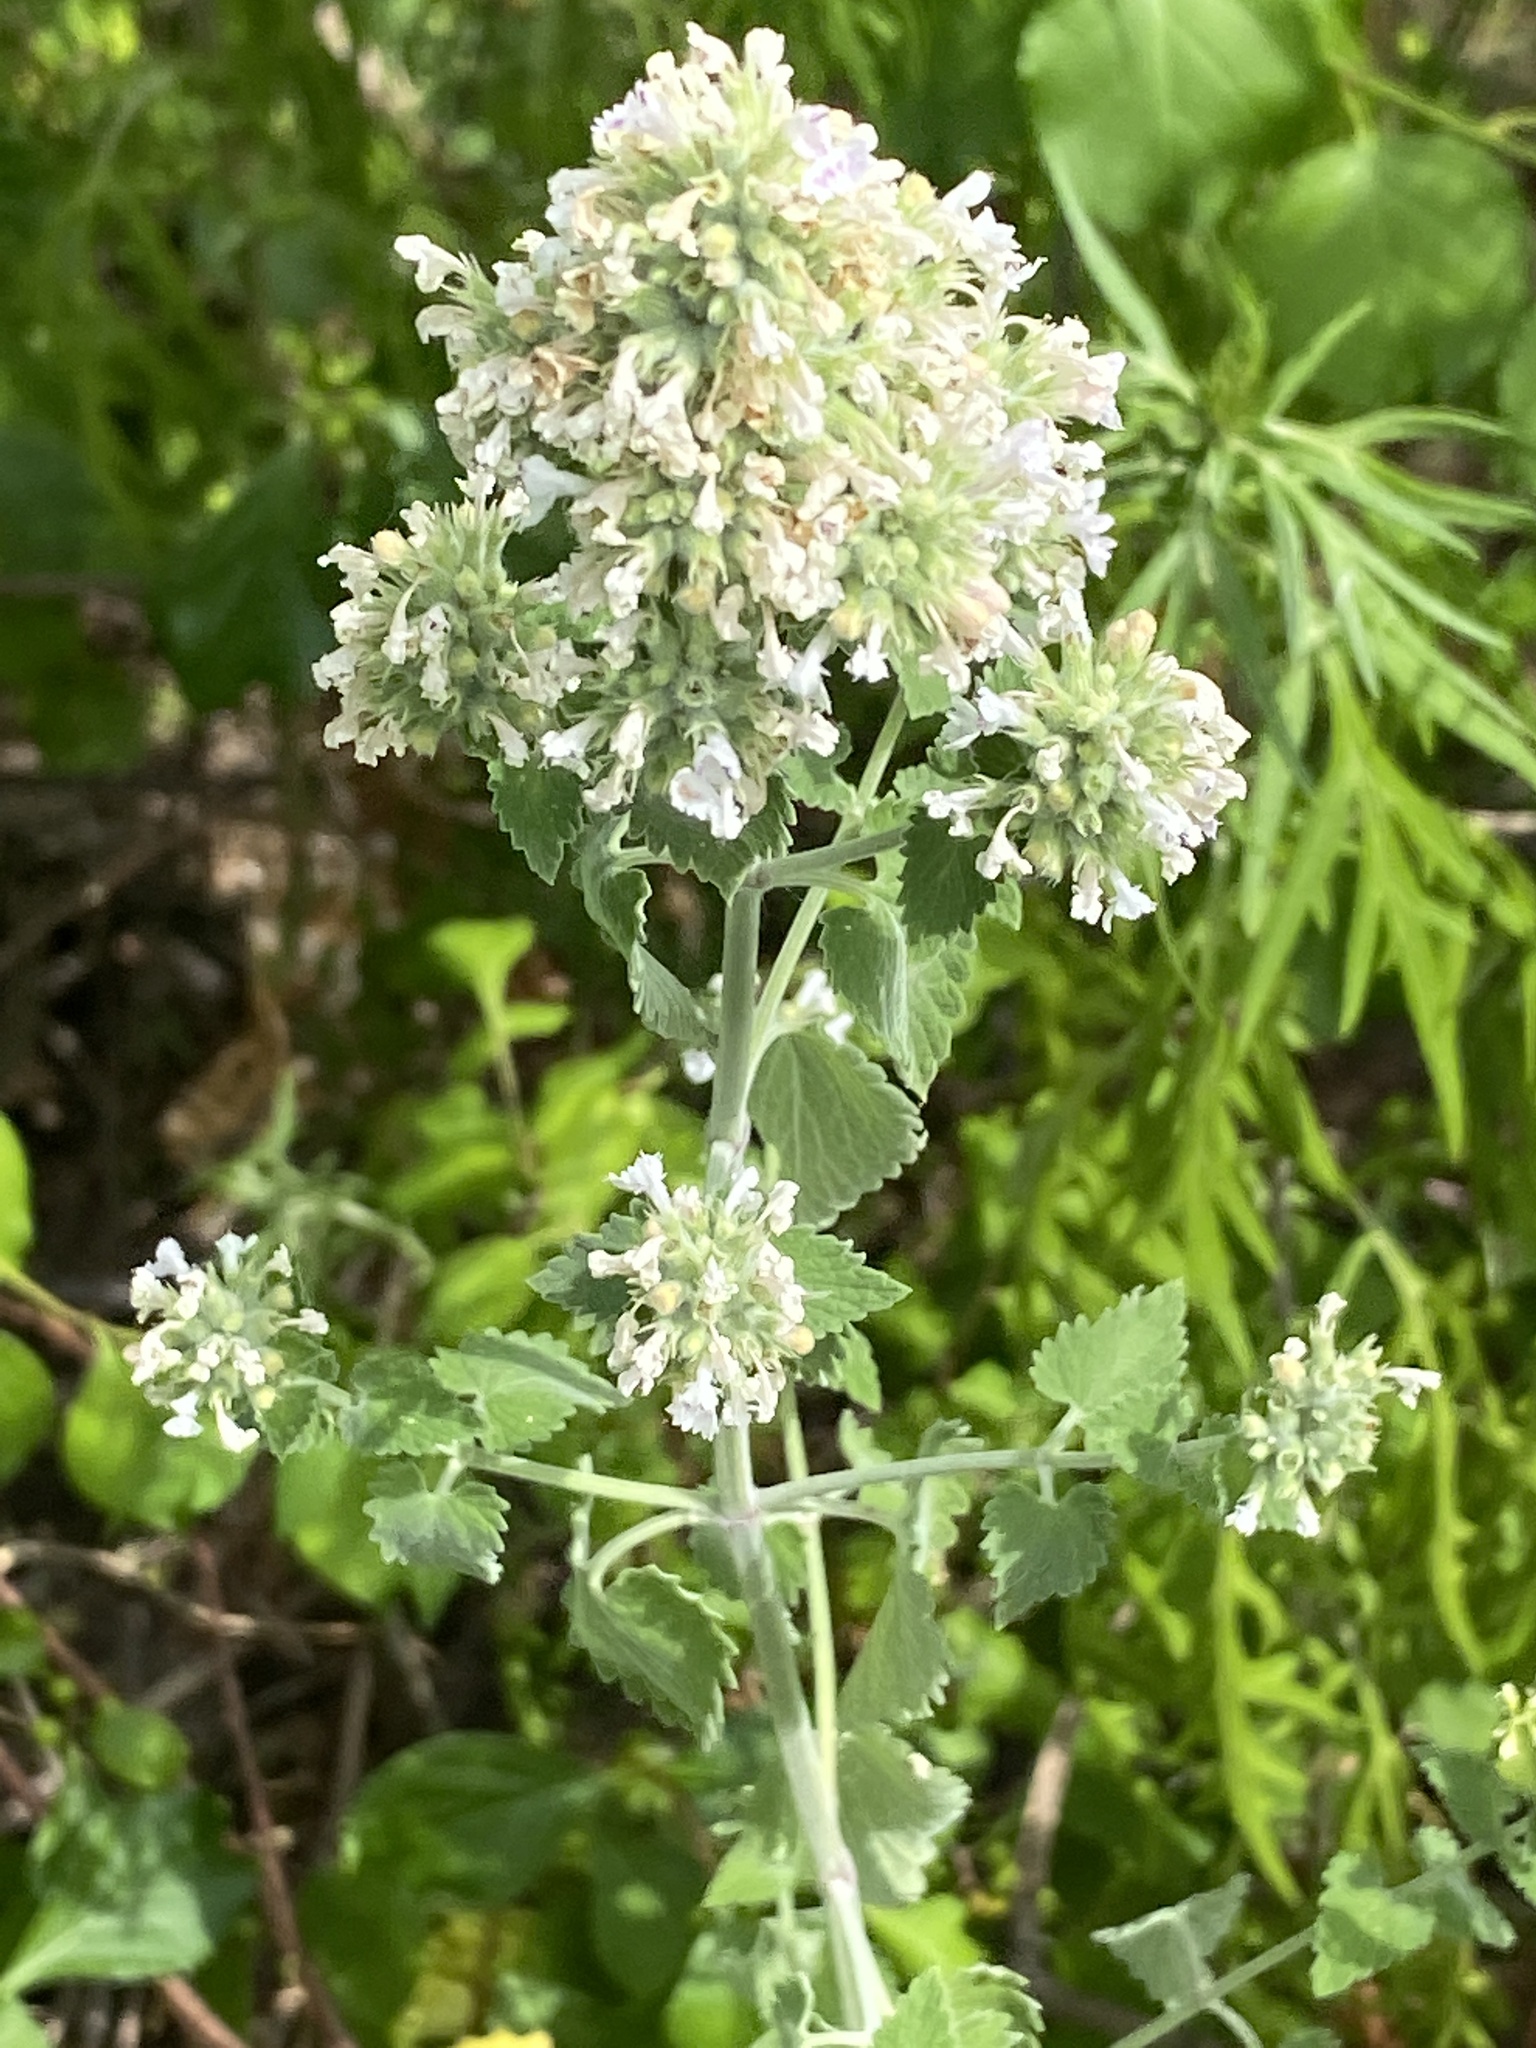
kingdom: Plantae
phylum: Tracheophyta
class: Magnoliopsida
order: Lamiales
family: Lamiaceae
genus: Nepeta
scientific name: Nepeta cataria
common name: Catnip
